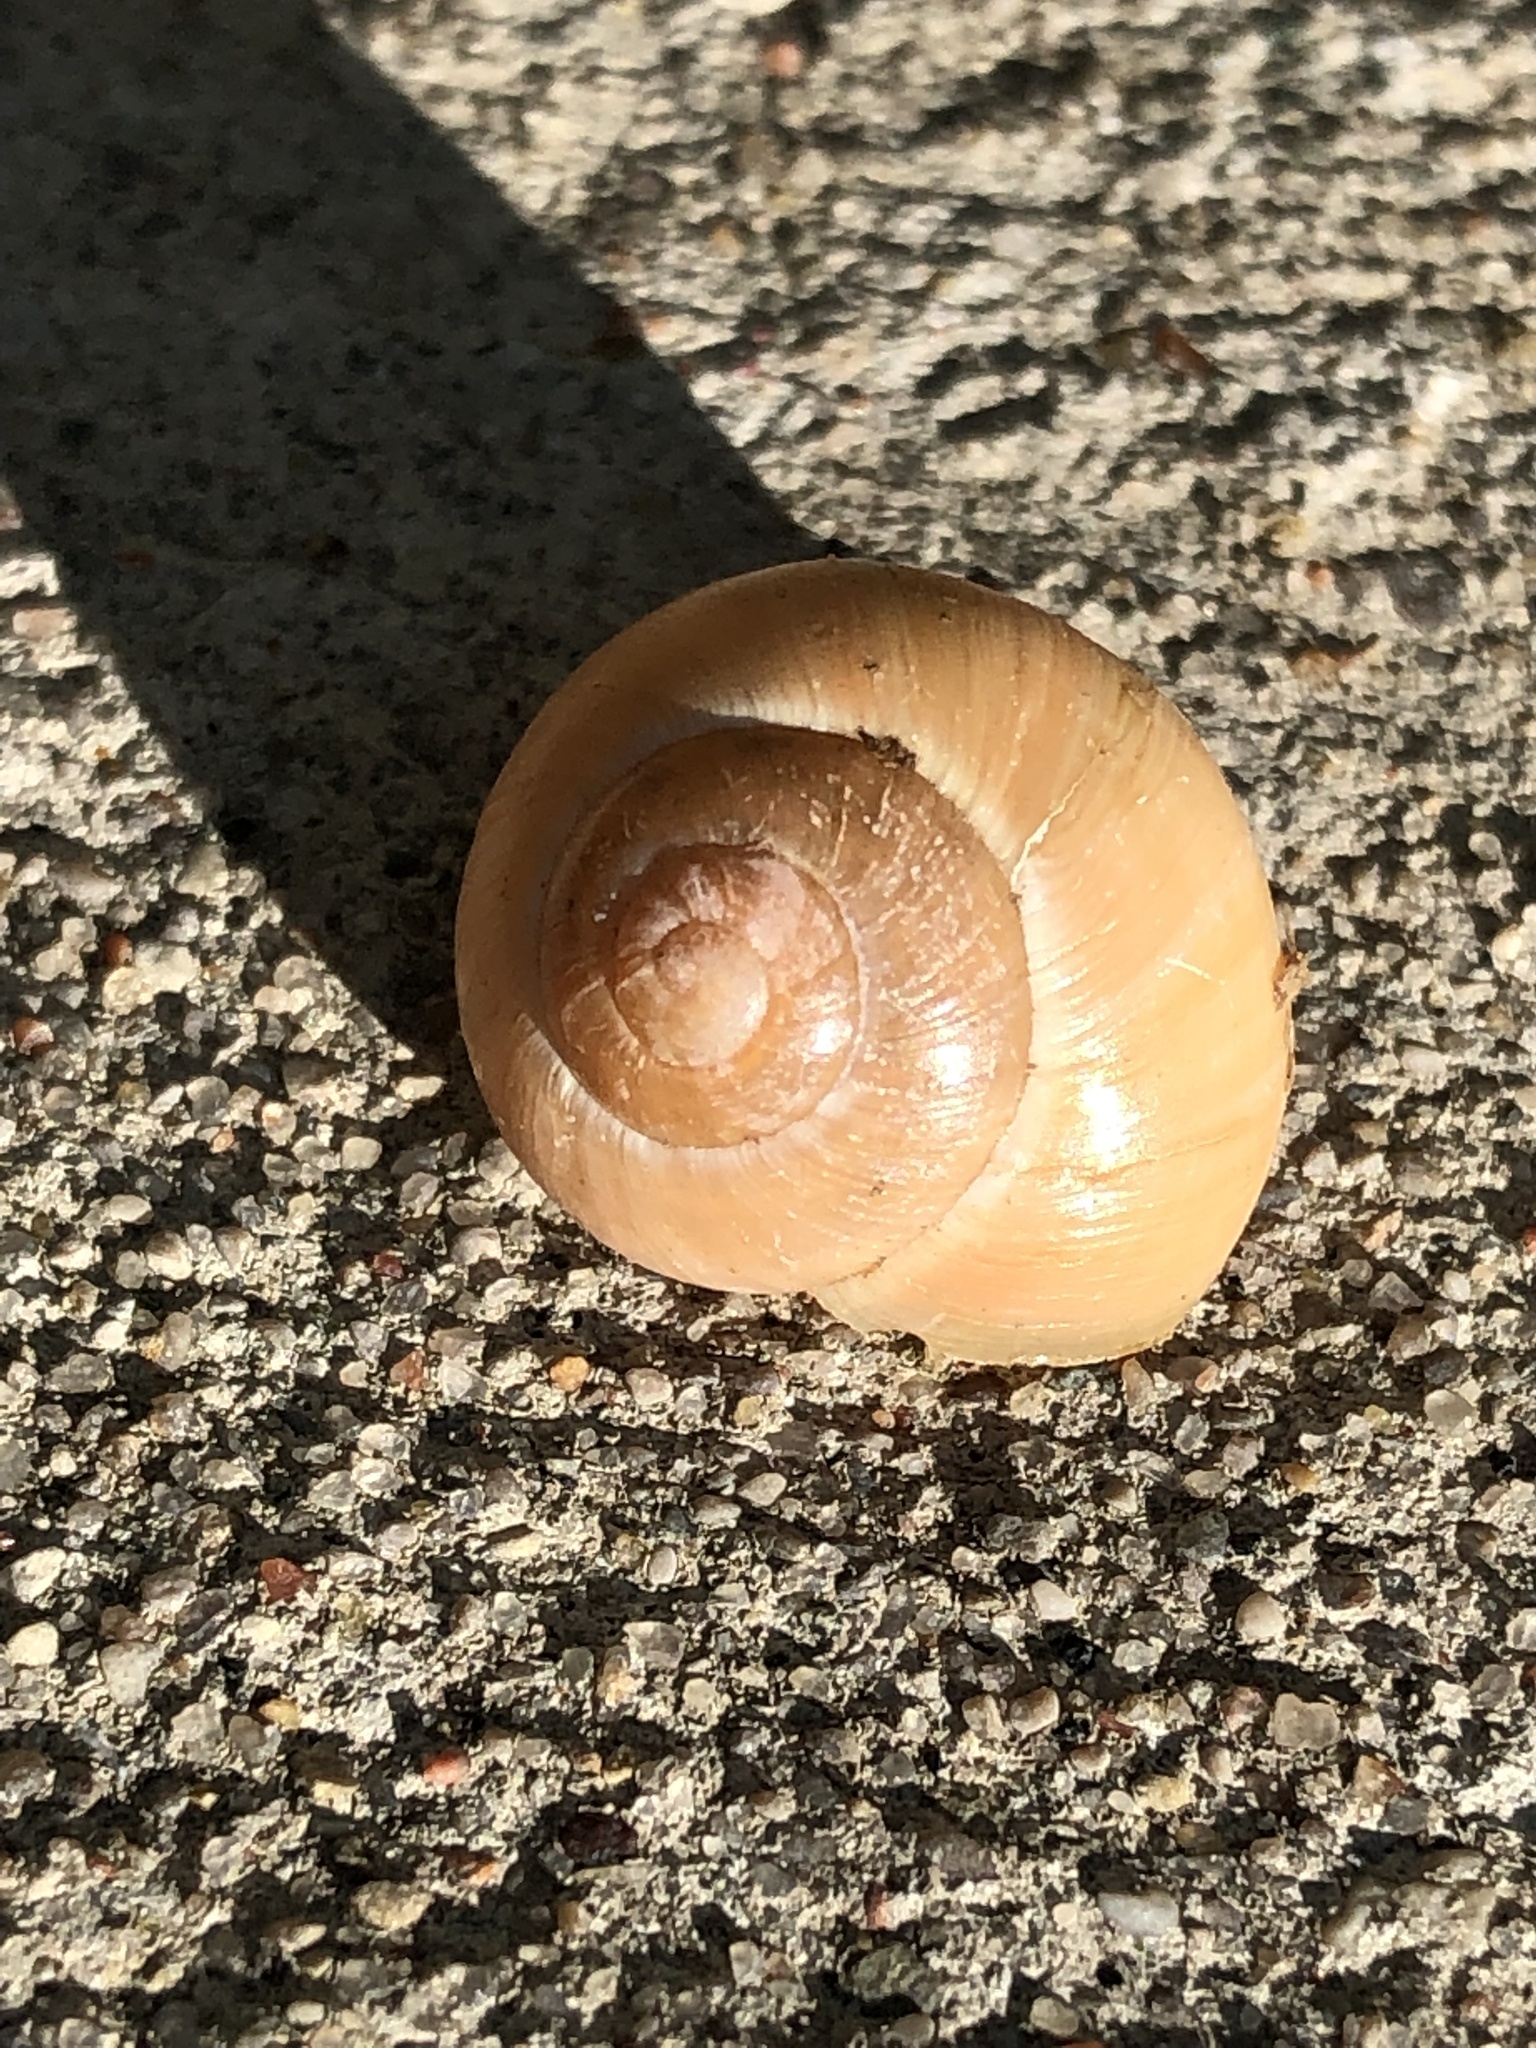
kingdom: Animalia
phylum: Mollusca
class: Gastropoda
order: Stylommatophora
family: Helicidae
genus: Cepaea
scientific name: Cepaea
